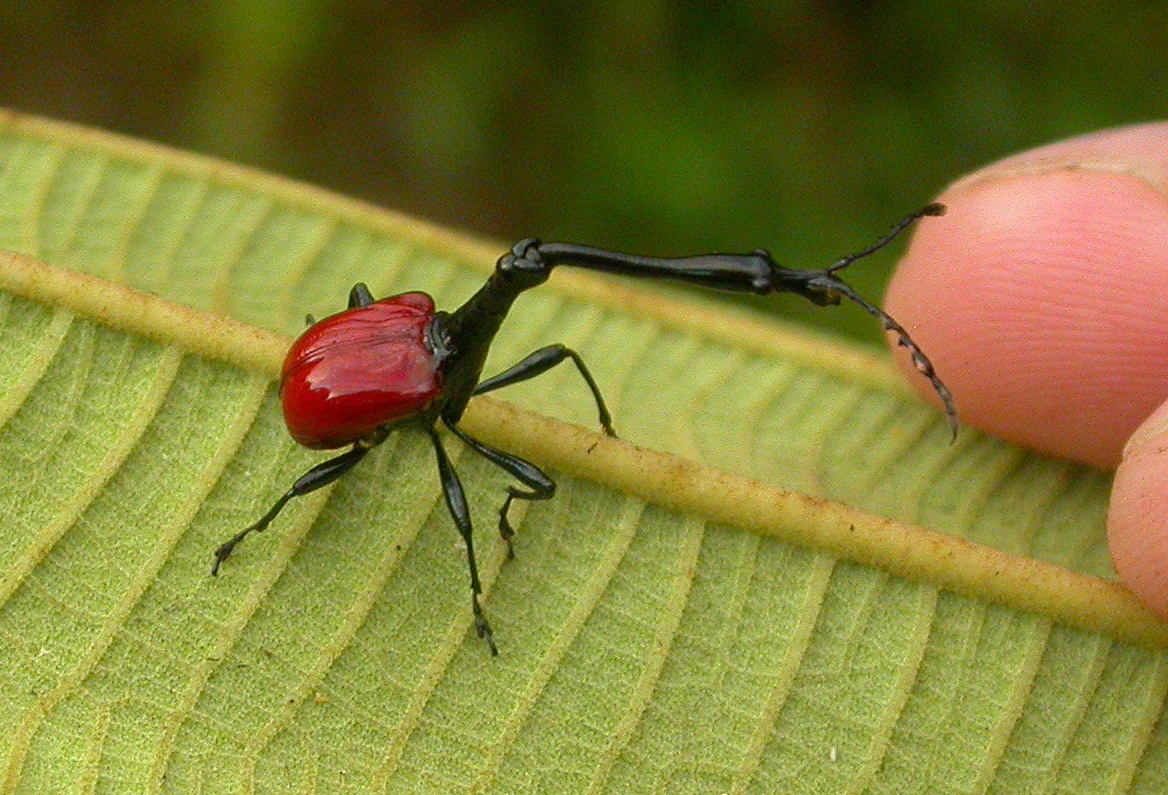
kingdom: Animalia
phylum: Arthropoda
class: Insecta
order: Coleoptera
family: Attelabidae
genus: Trachelophorus
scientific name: Trachelophorus giraffa
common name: Giraffe weevil
